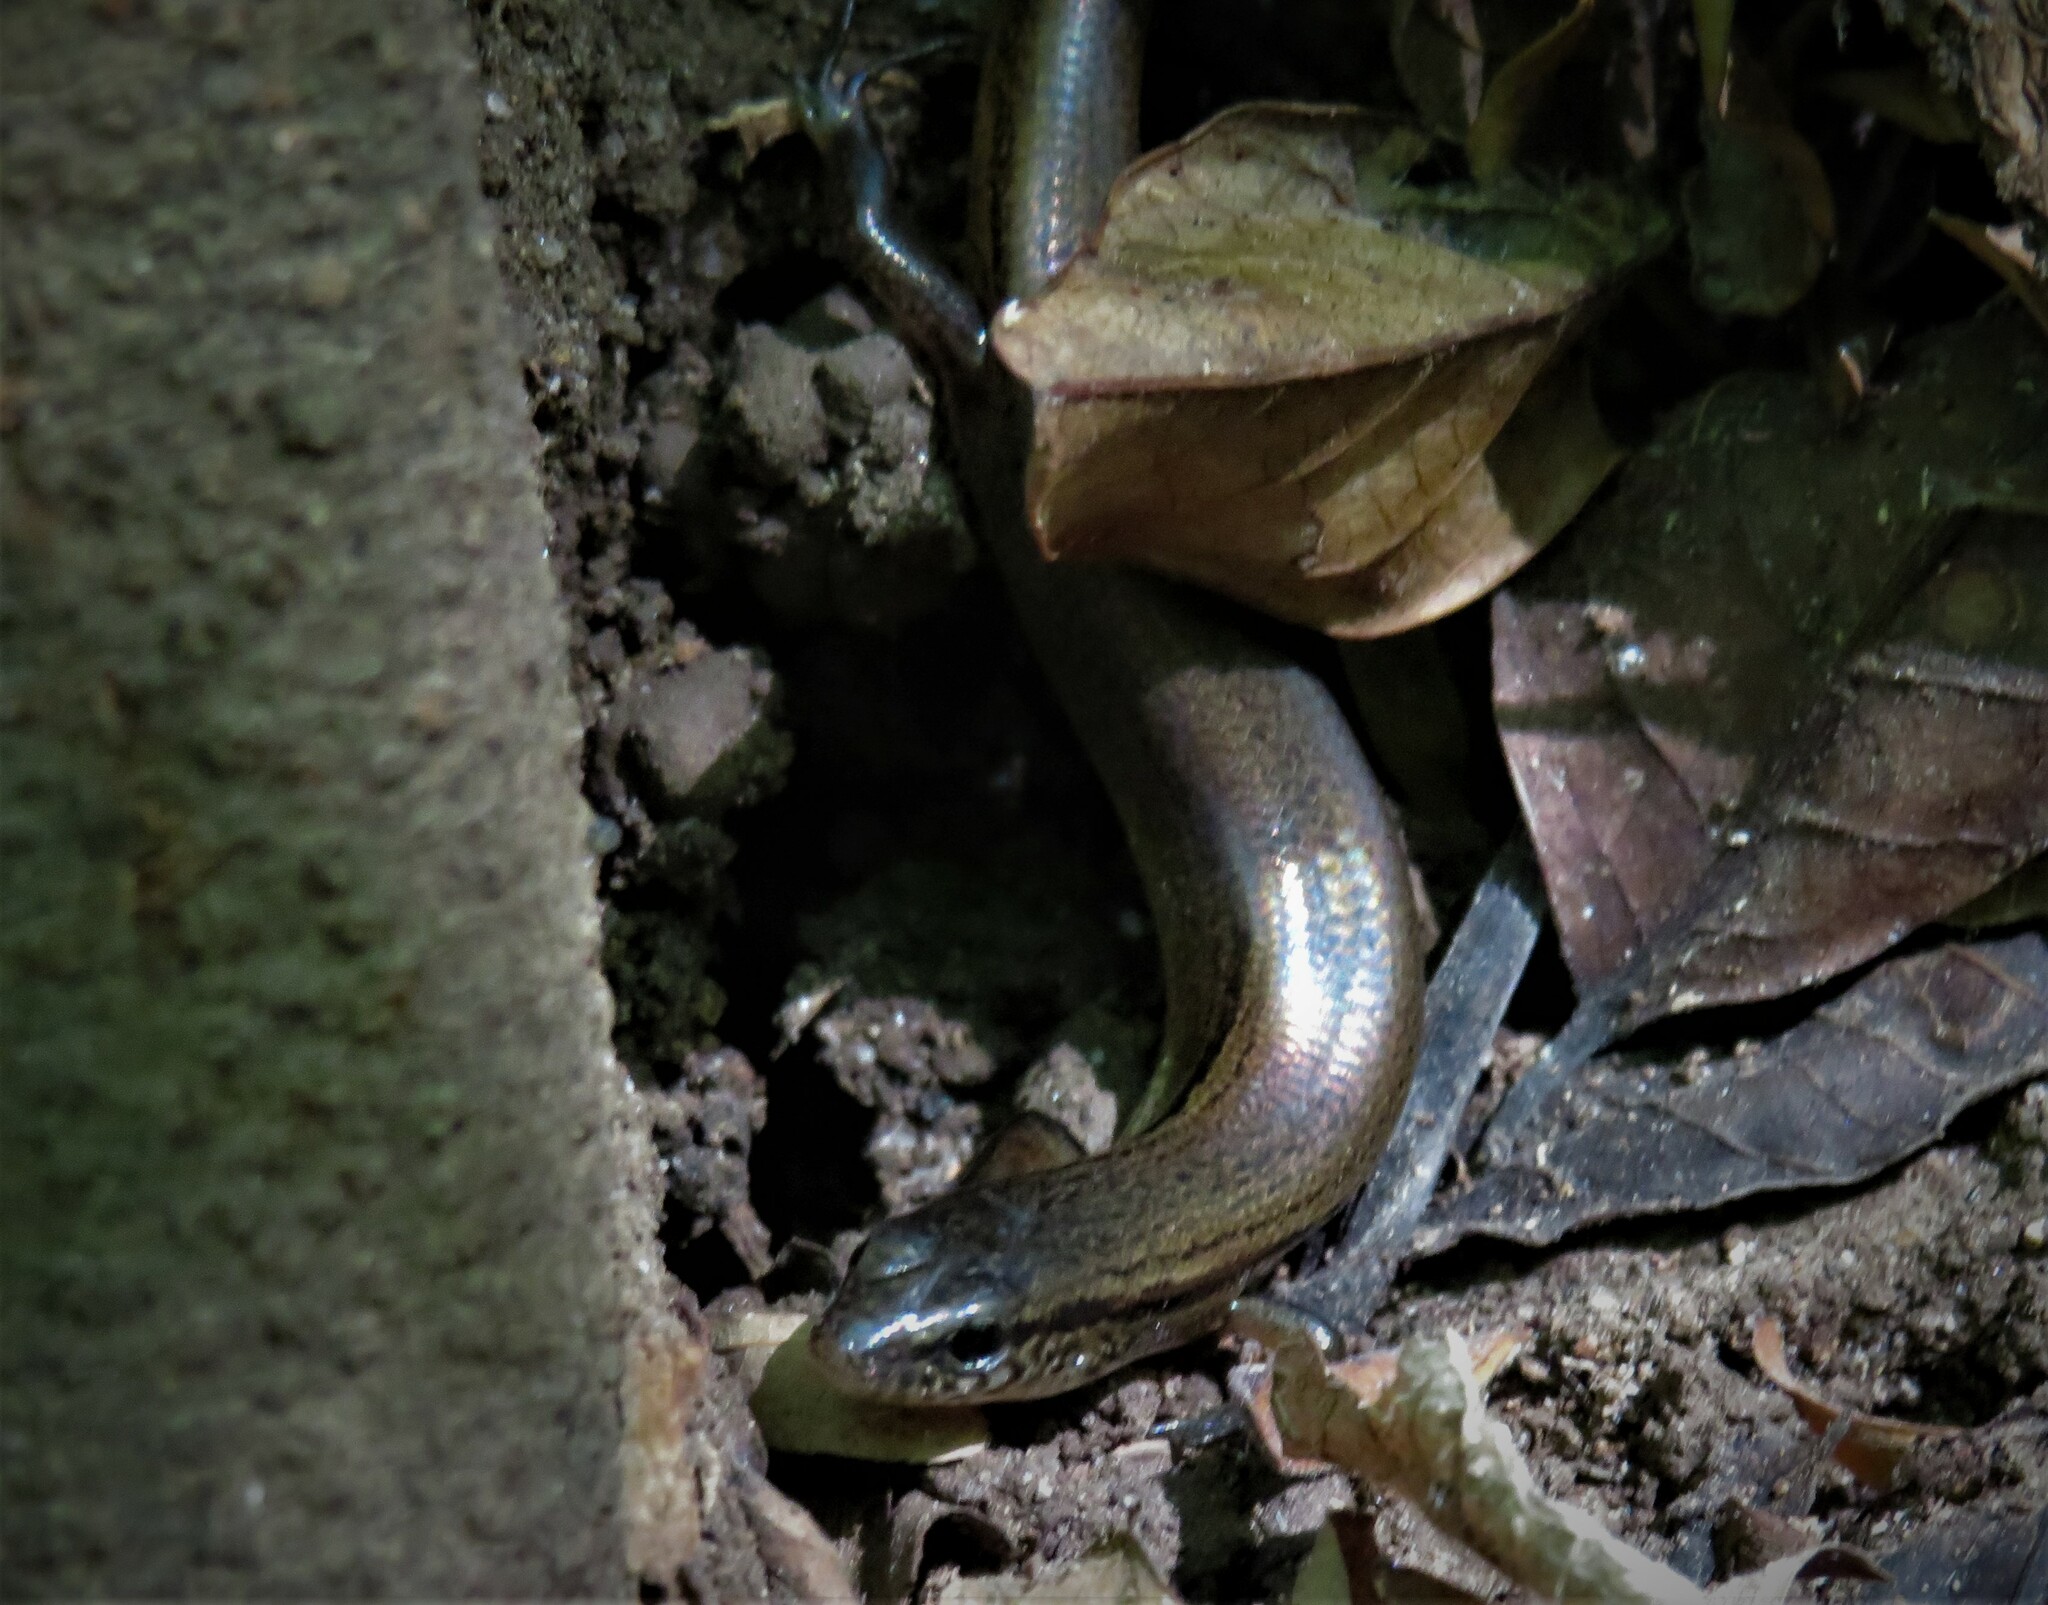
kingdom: Animalia
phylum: Chordata
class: Squamata
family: Scincidae
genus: Scincella
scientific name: Scincella assata
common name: Ground skink
